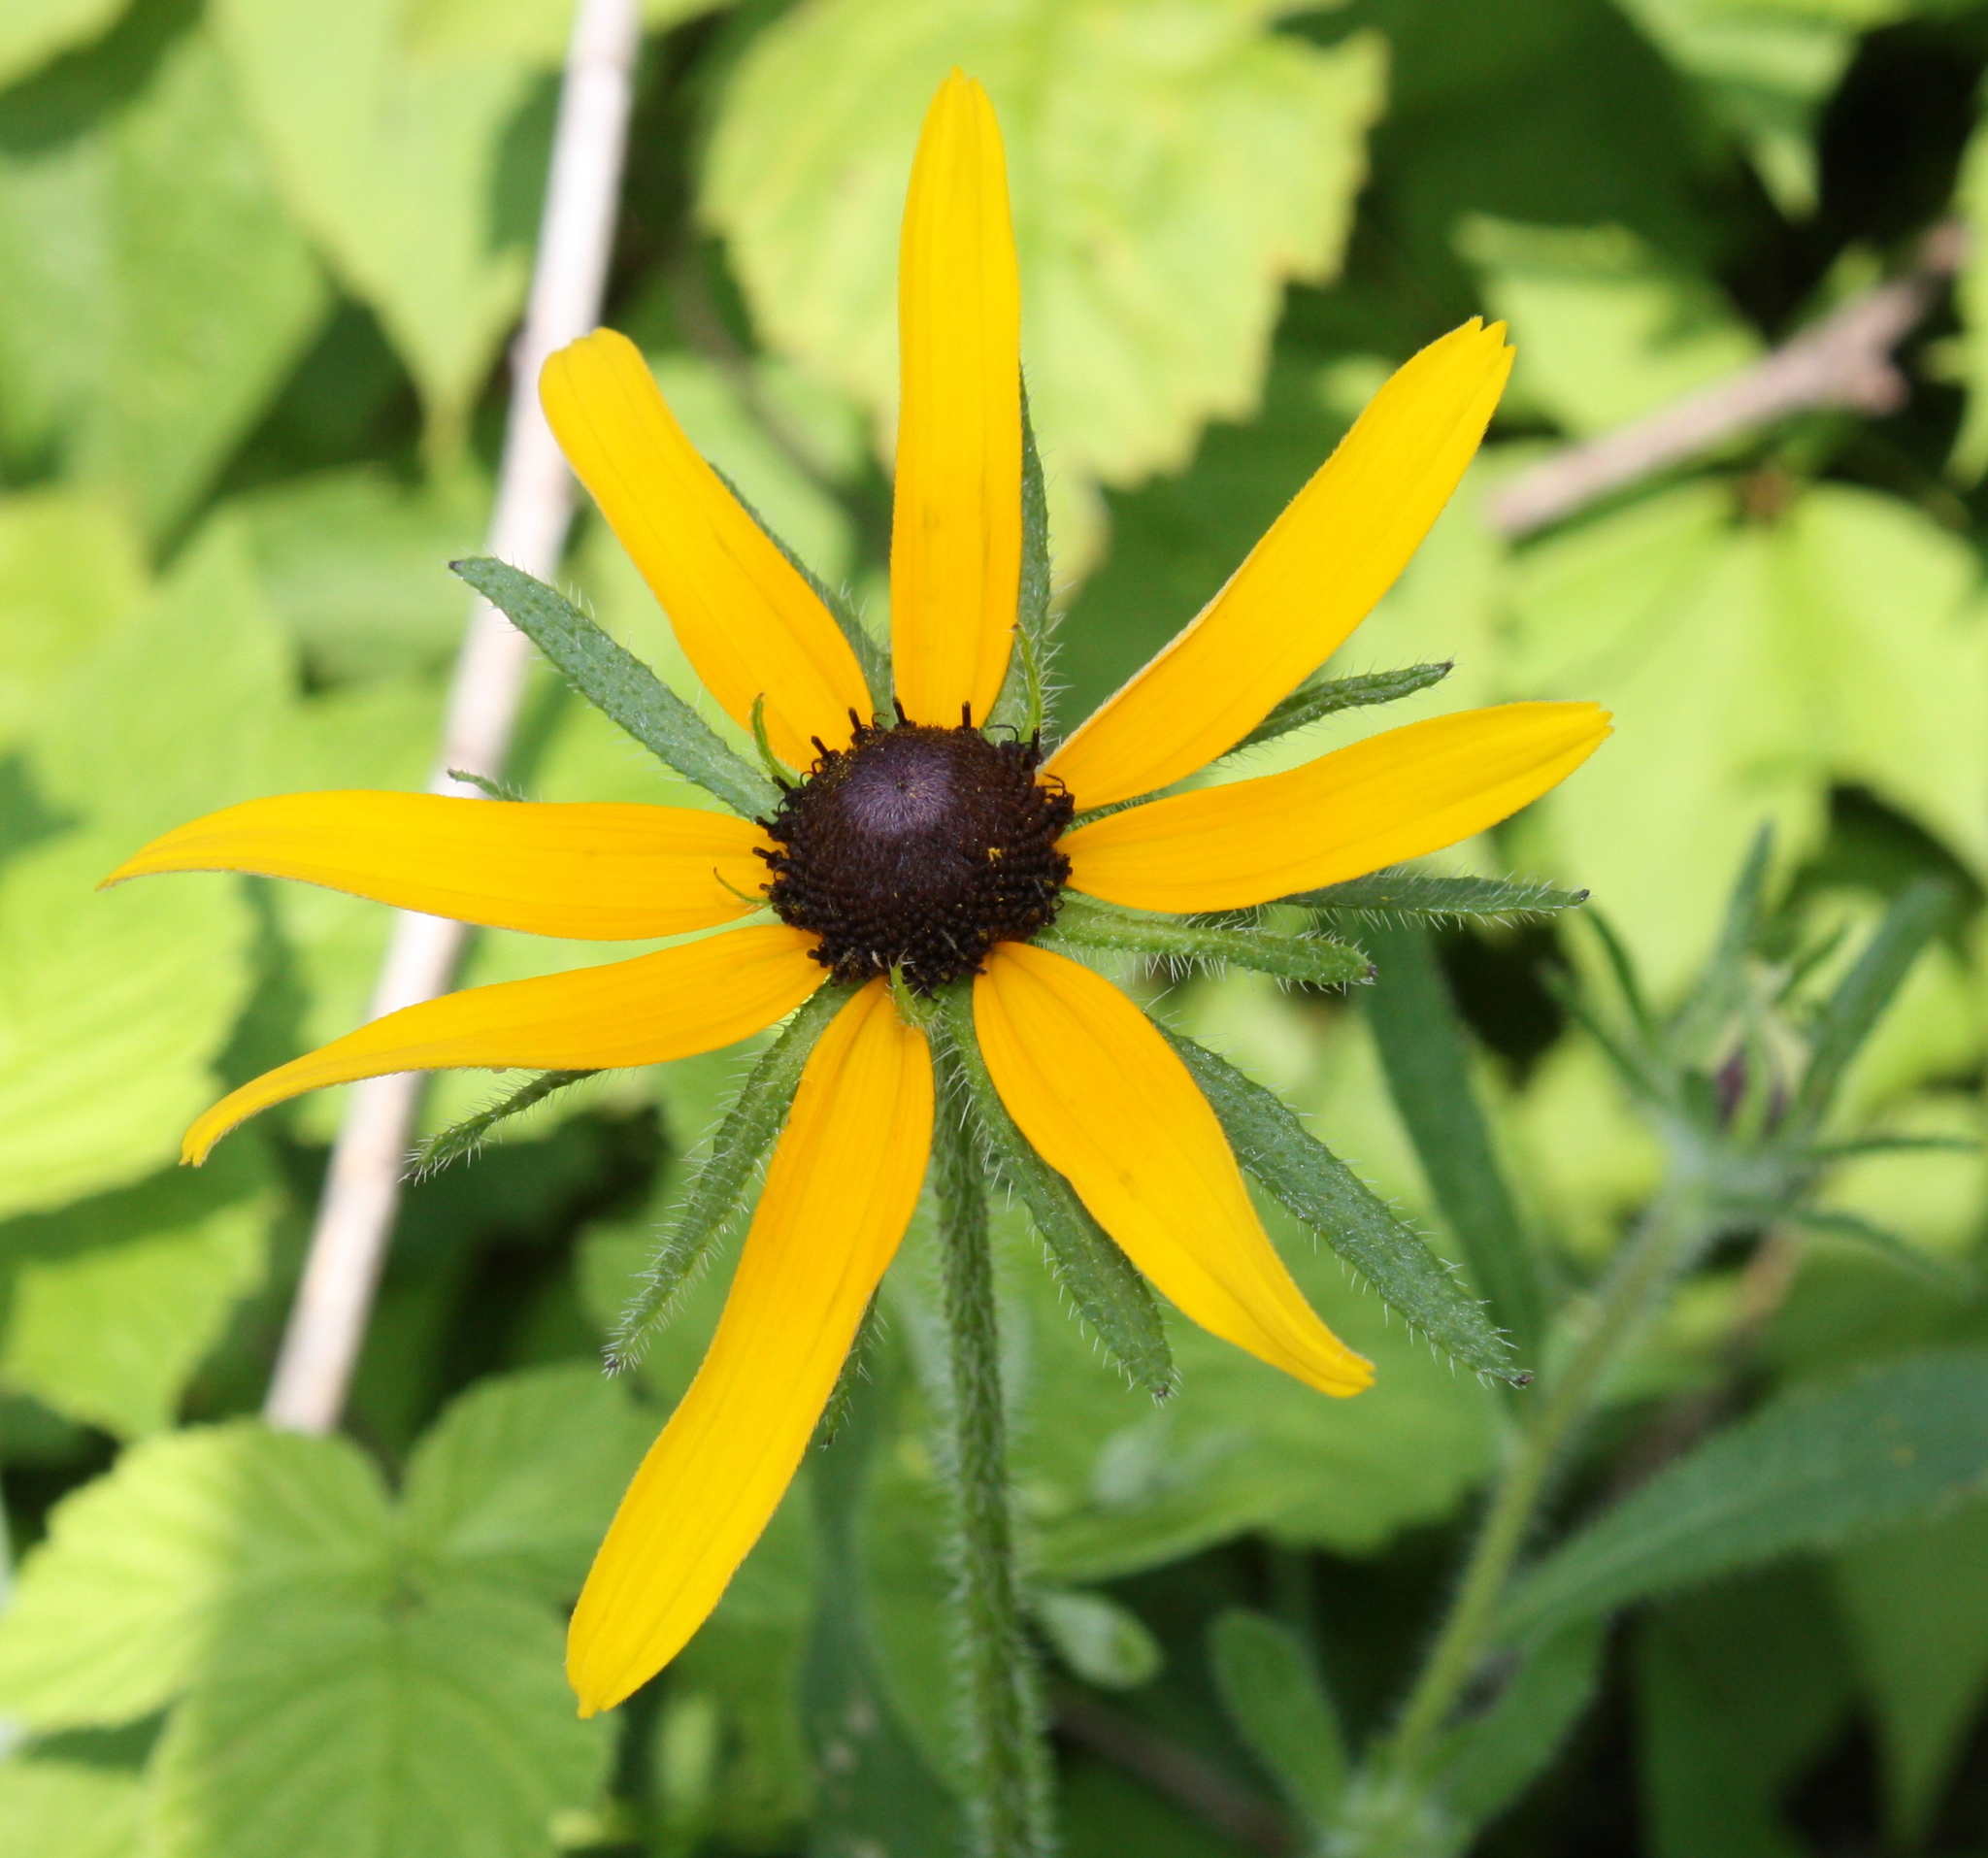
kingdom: Plantae
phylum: Tracheophyta
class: Magnoliopsida
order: Asterales
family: Asteraceae
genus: Rudbeckia
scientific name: Rudbeckia hirta
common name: Black-eyed-susan
